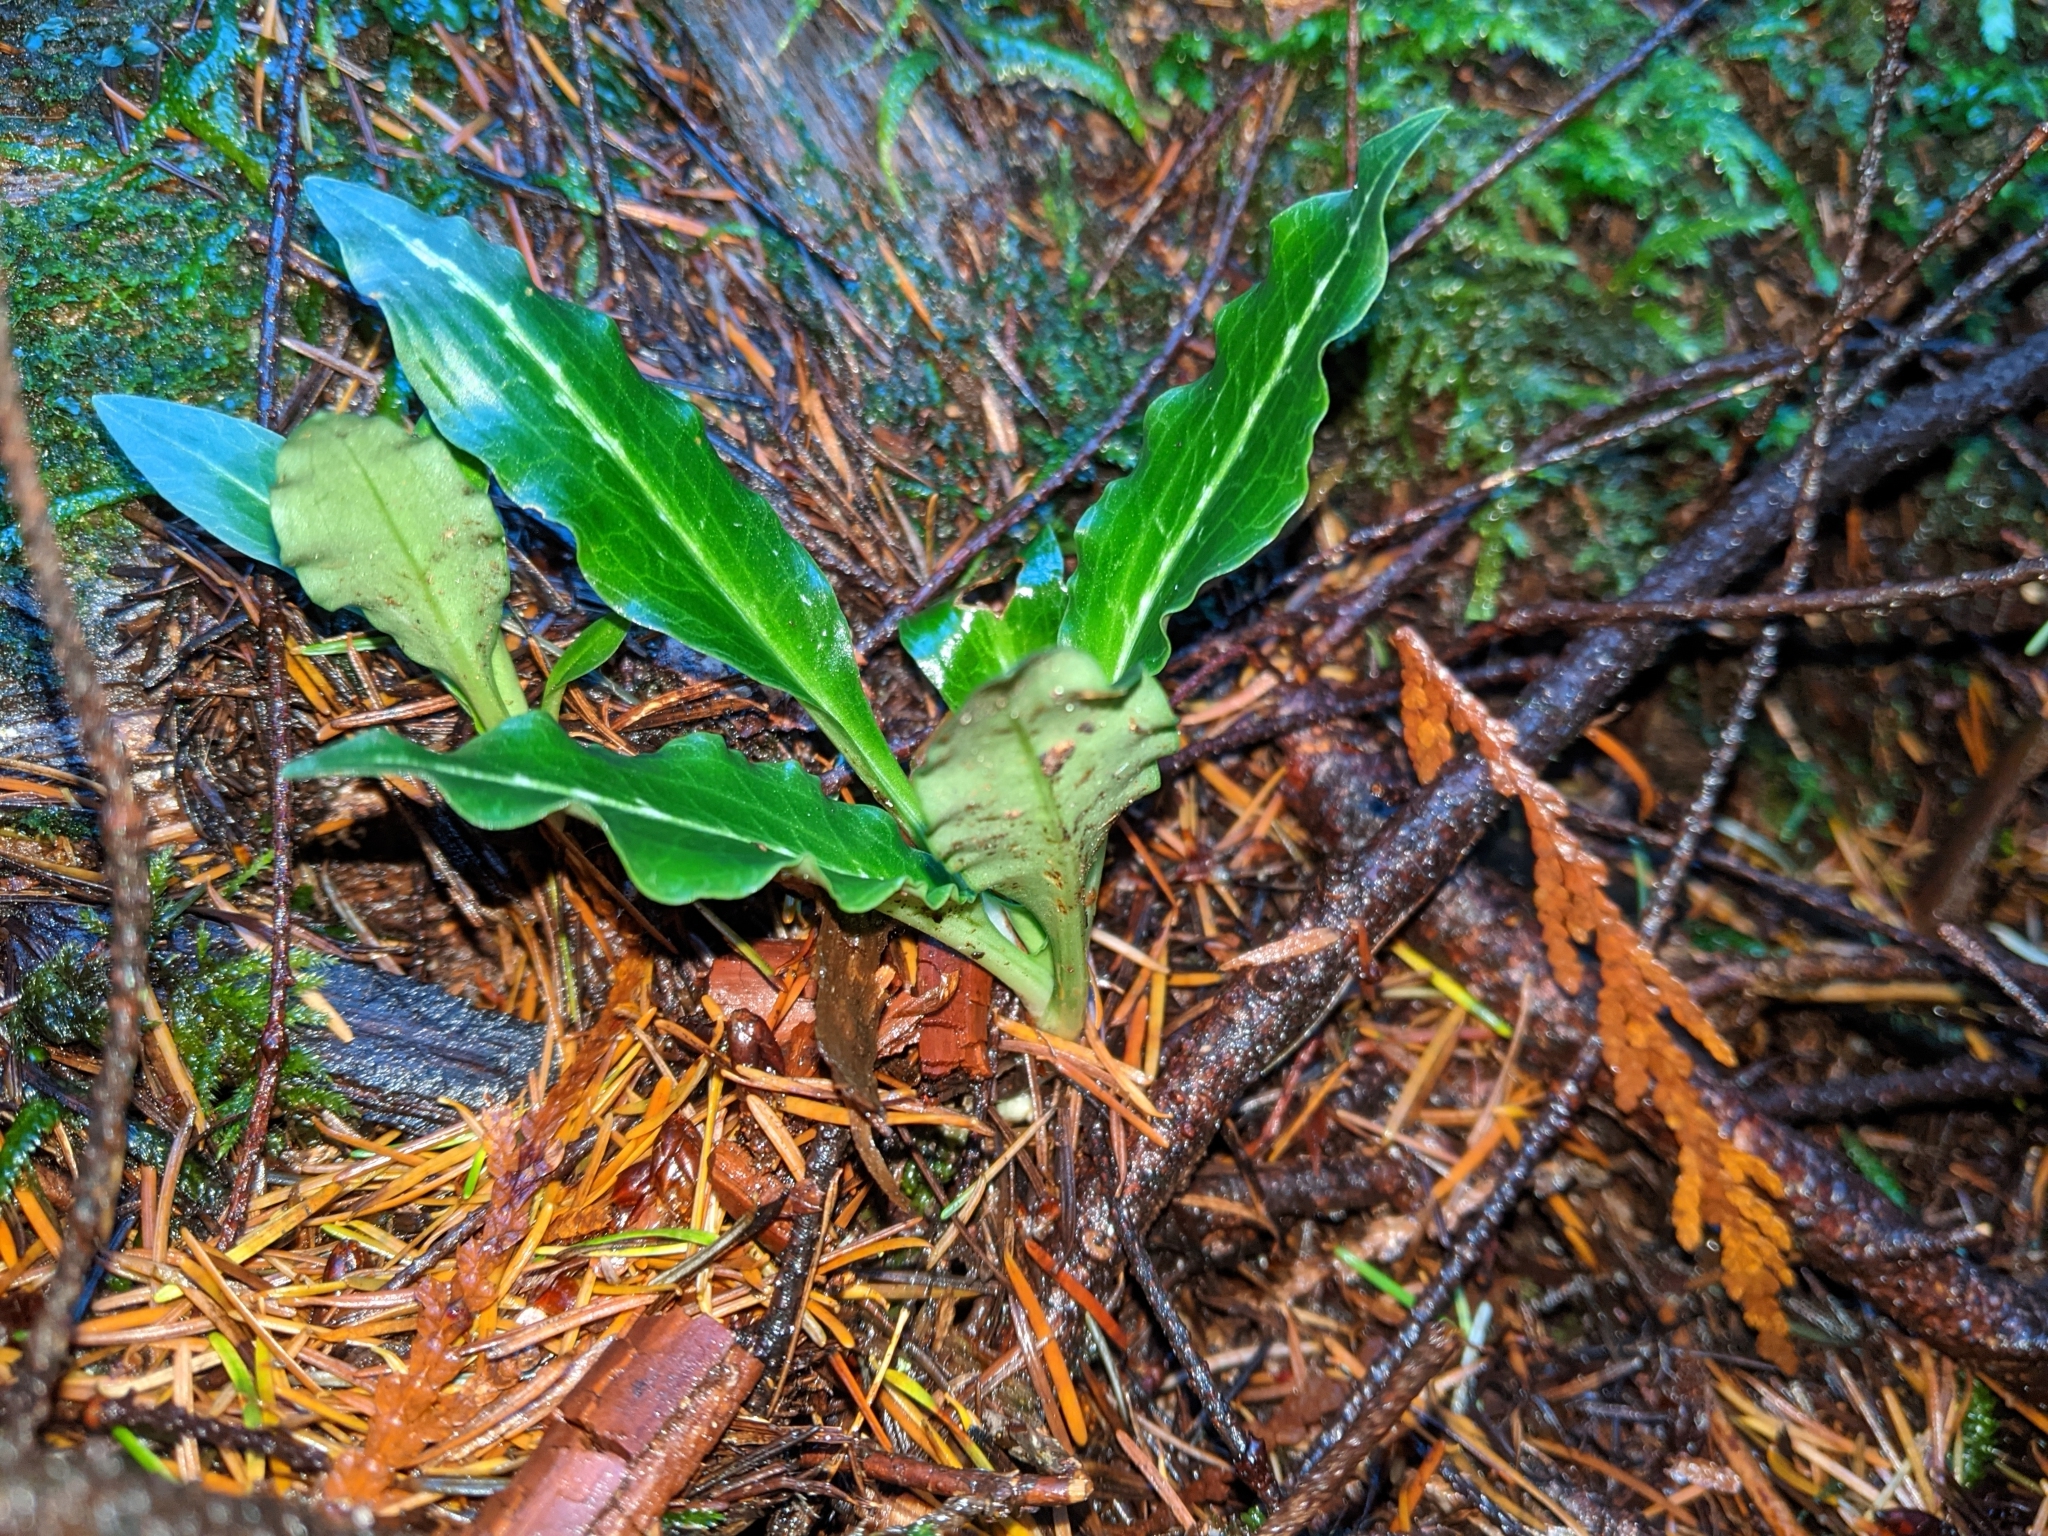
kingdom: Plantae
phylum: Tracheophyta
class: Liliopsida
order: Asparagales
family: Orchidaceae
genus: Goodyera
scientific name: Goodyera oblongifolia
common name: Giant rattlesnake-plantain
